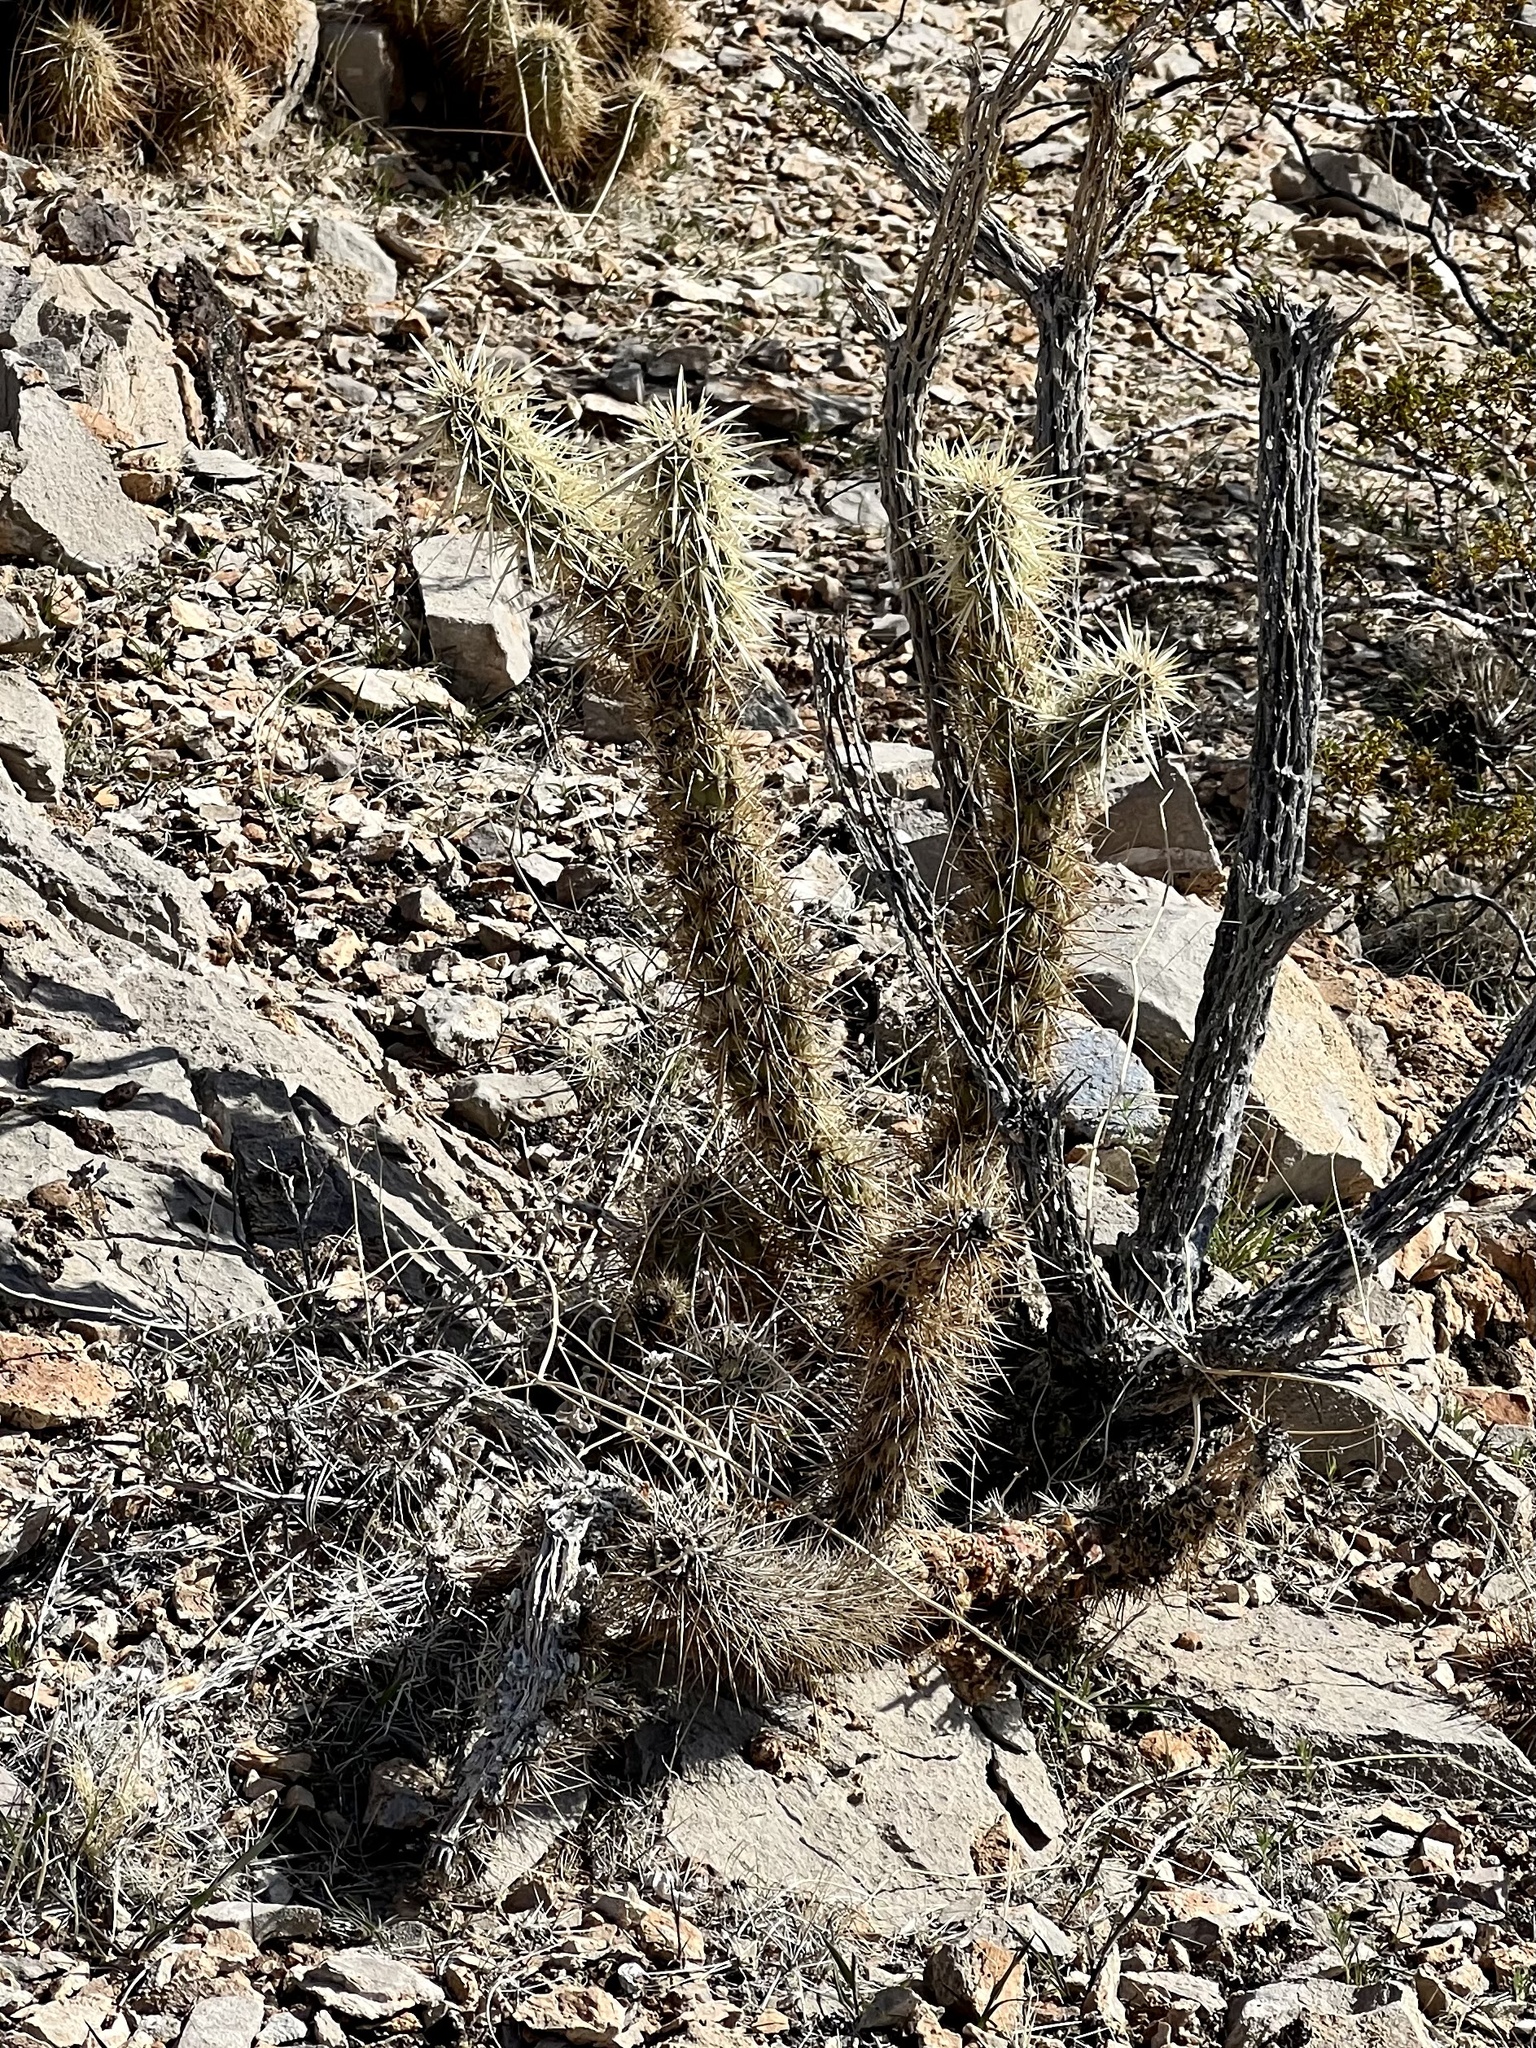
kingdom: Plantae
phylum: Tracheophyta
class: Magnoliopsida
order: Caryophyllales
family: Cactaceae
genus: Cylindropuntia
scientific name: Cylindropuntia acanthocarpa
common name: Buckhorn cholla
